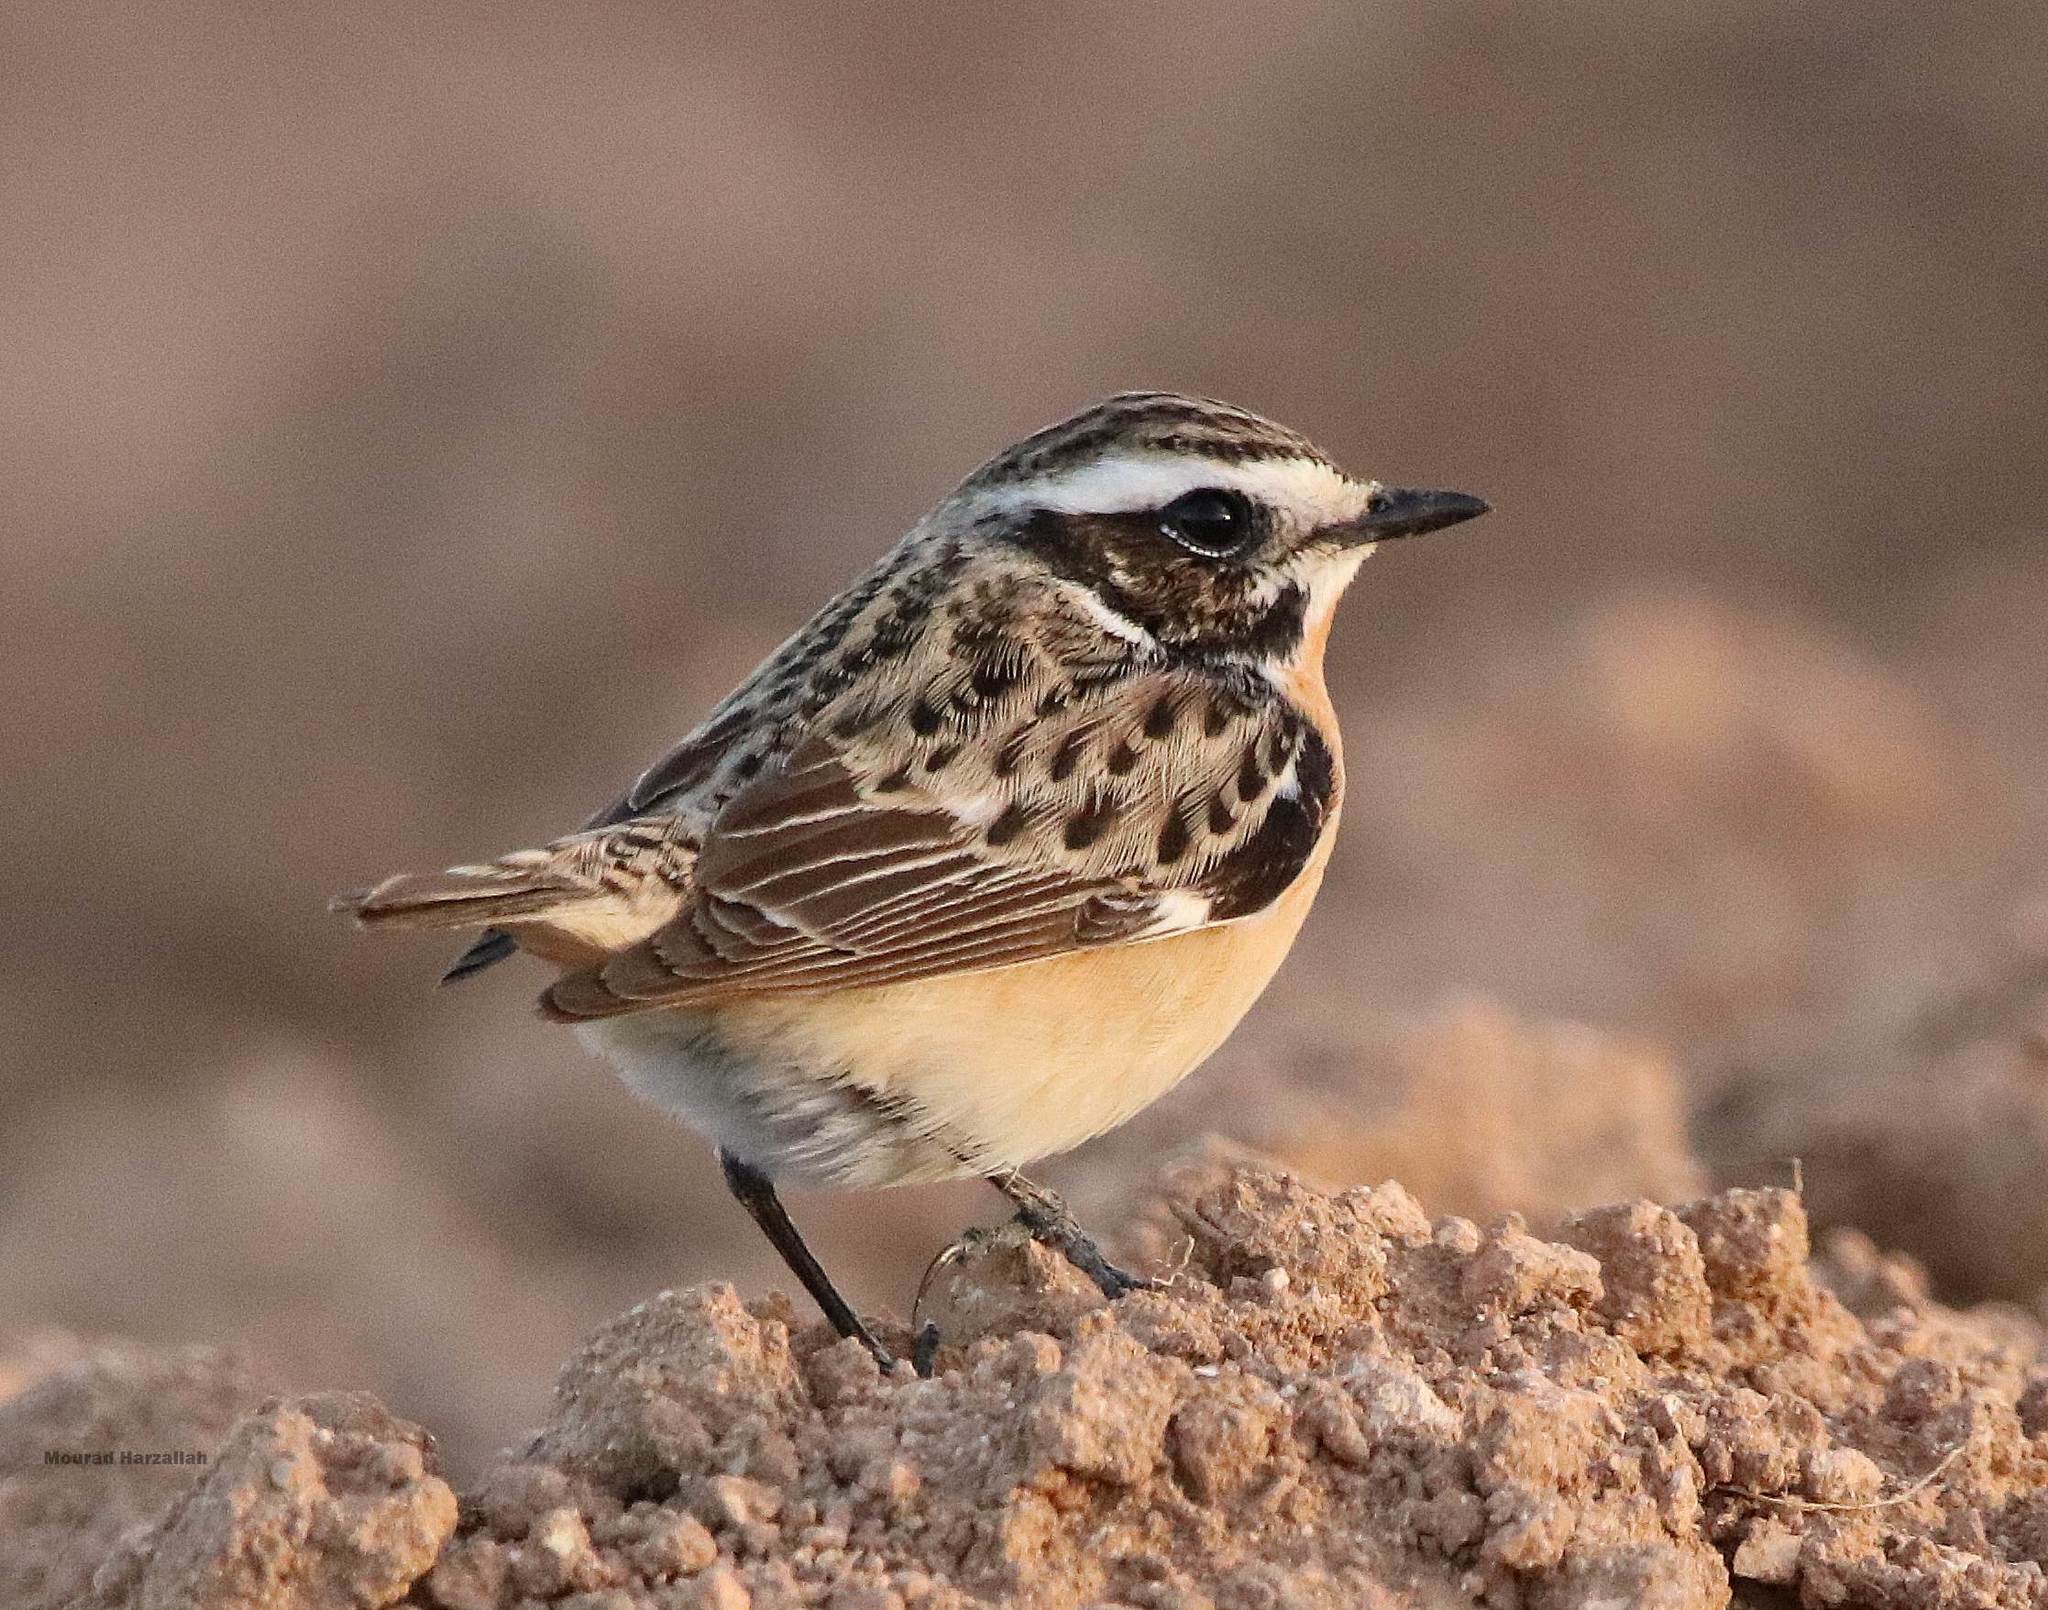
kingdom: Animalia
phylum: Chordata
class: Aves
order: Passeriformes
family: Muscicapidae
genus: Saxicola
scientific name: Saxicola rubetra
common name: Whinchat
